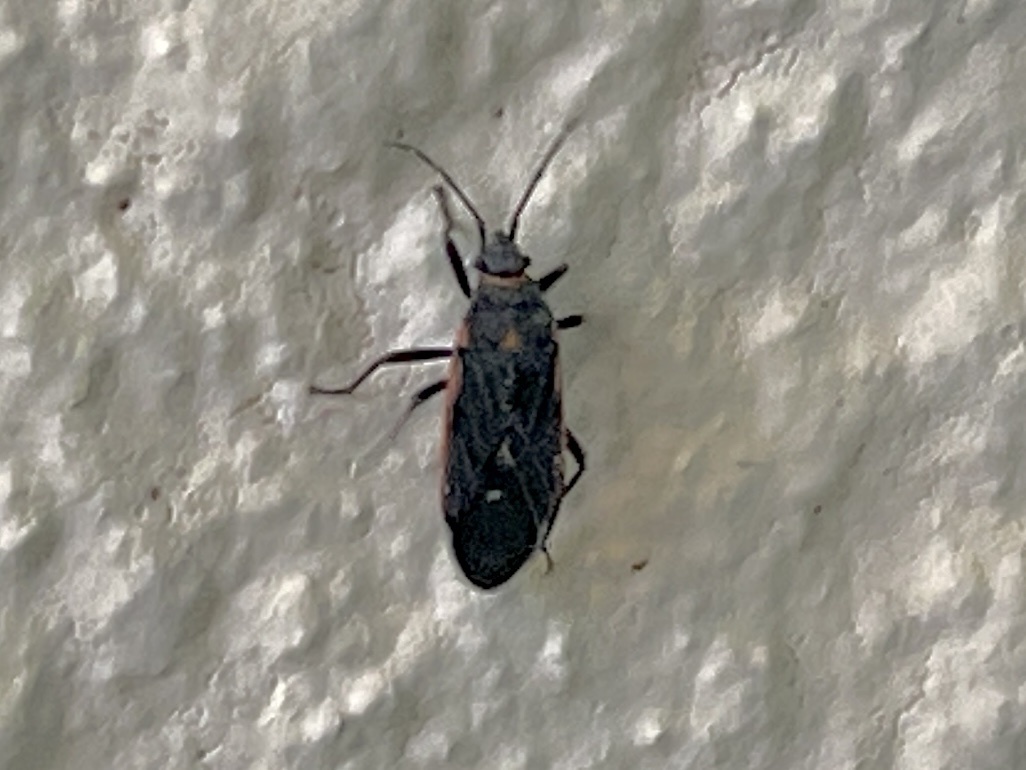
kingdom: Animalia
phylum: Arthropoda
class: Insecta
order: Hemiptera
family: Lygaeidae
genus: Melacoryphus
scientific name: Melacoryphus lateralis
